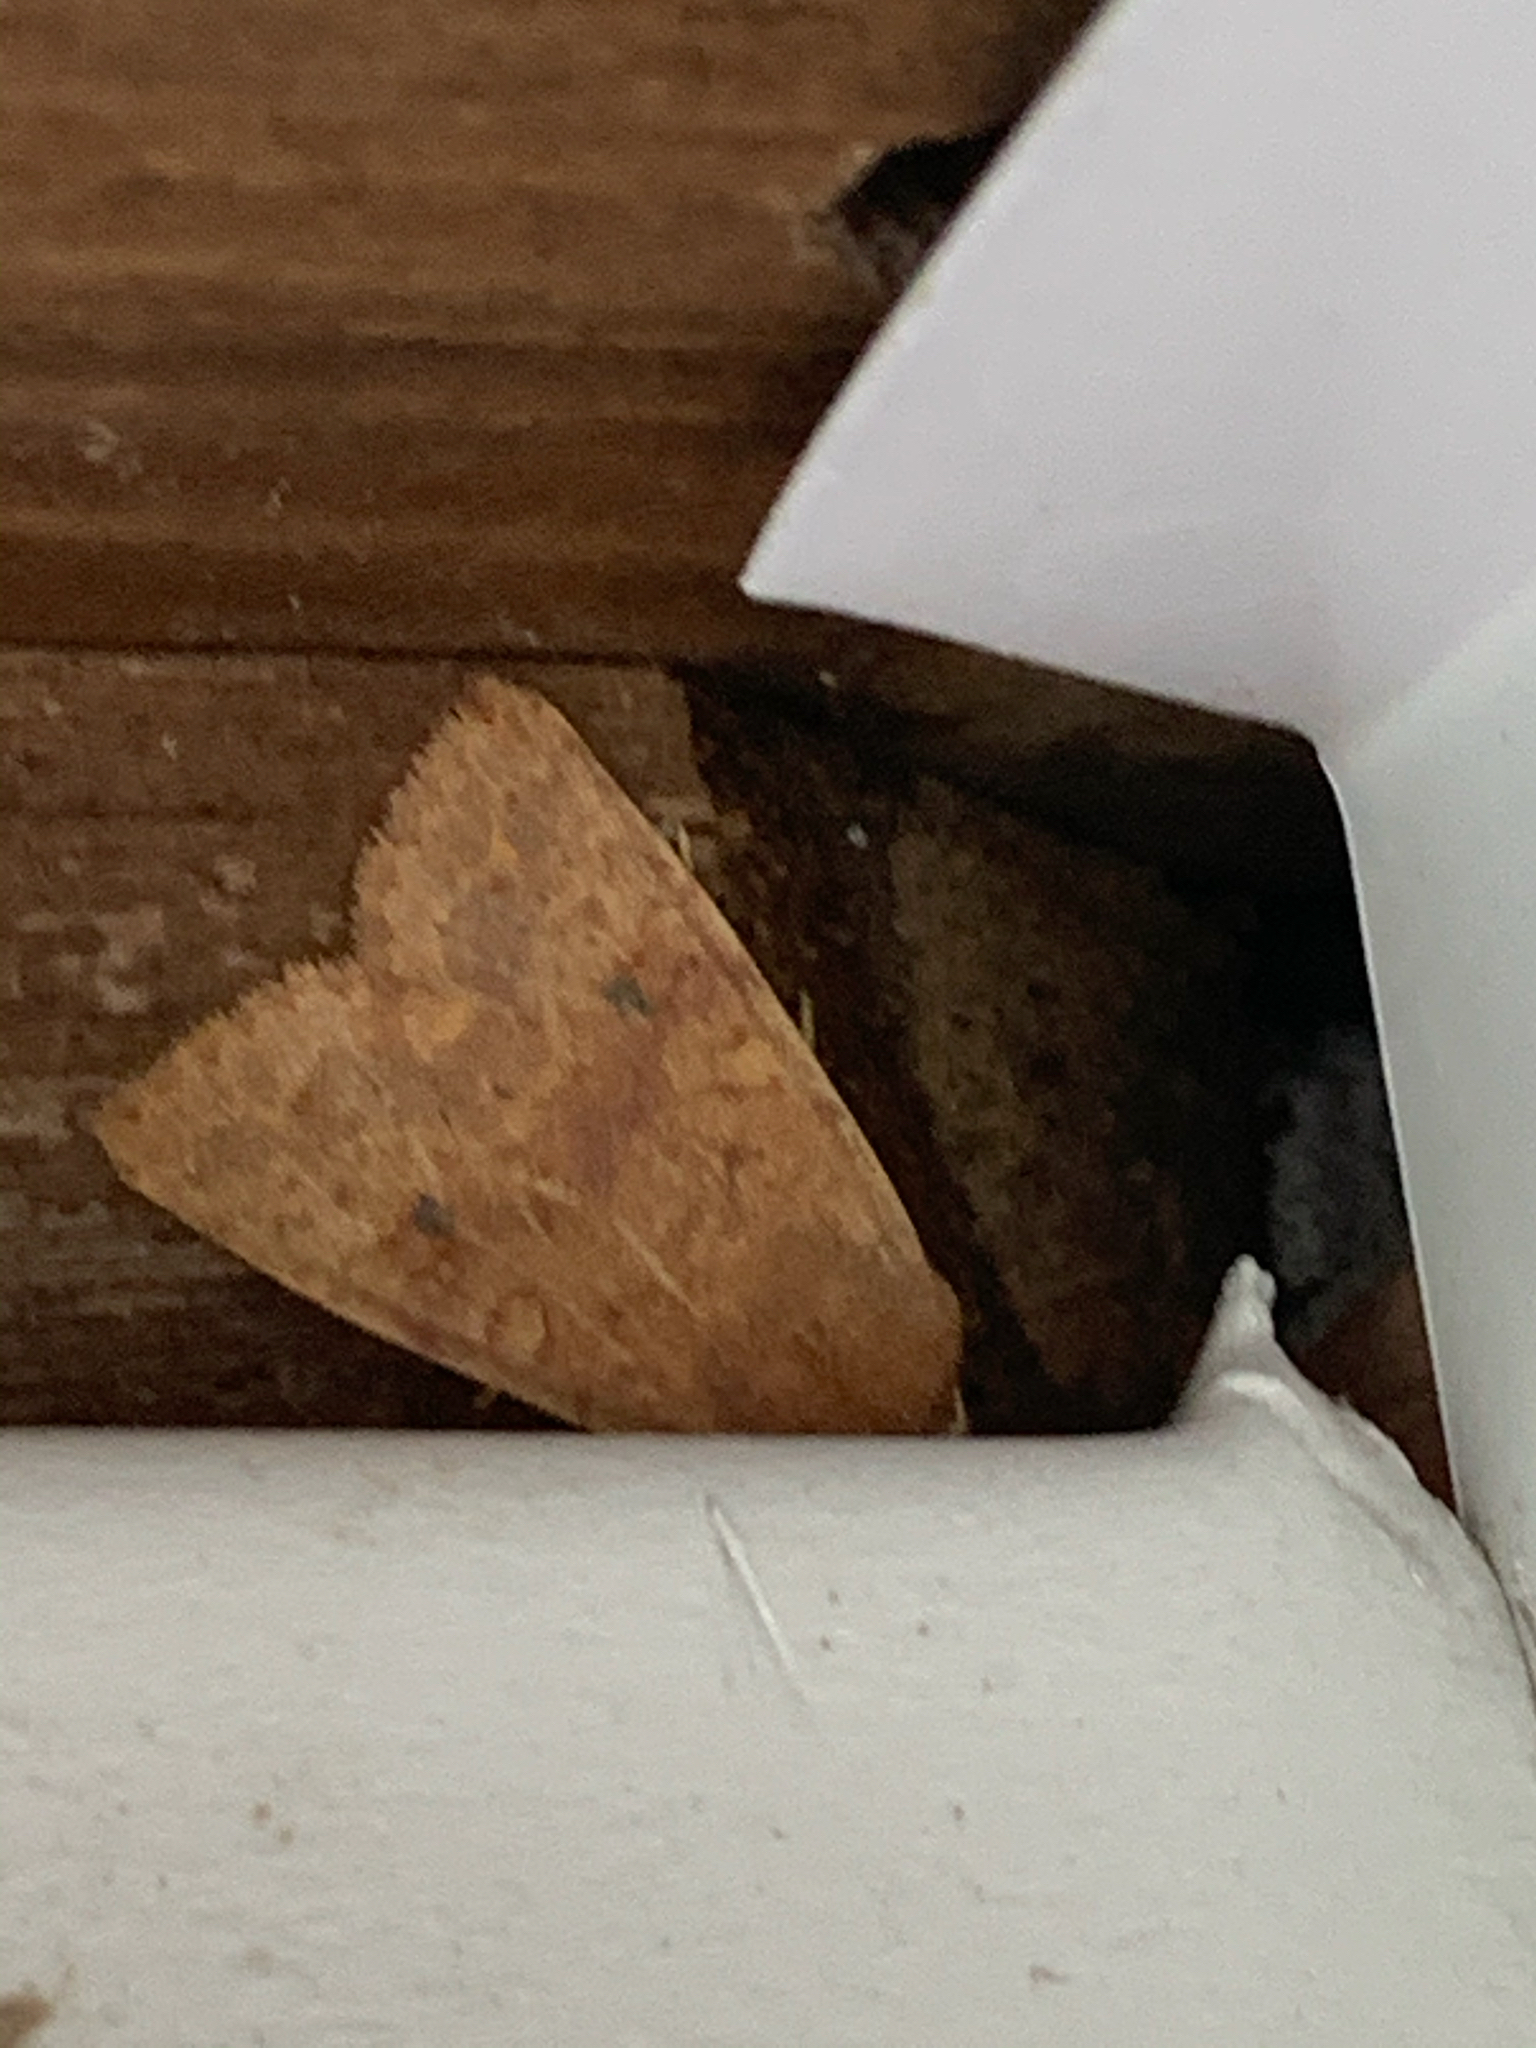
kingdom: Animalia
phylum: Arthropoda
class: Insecta
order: Lepidoptera
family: Noctuidae
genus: Agrochola
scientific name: Agrochola bicolorago
